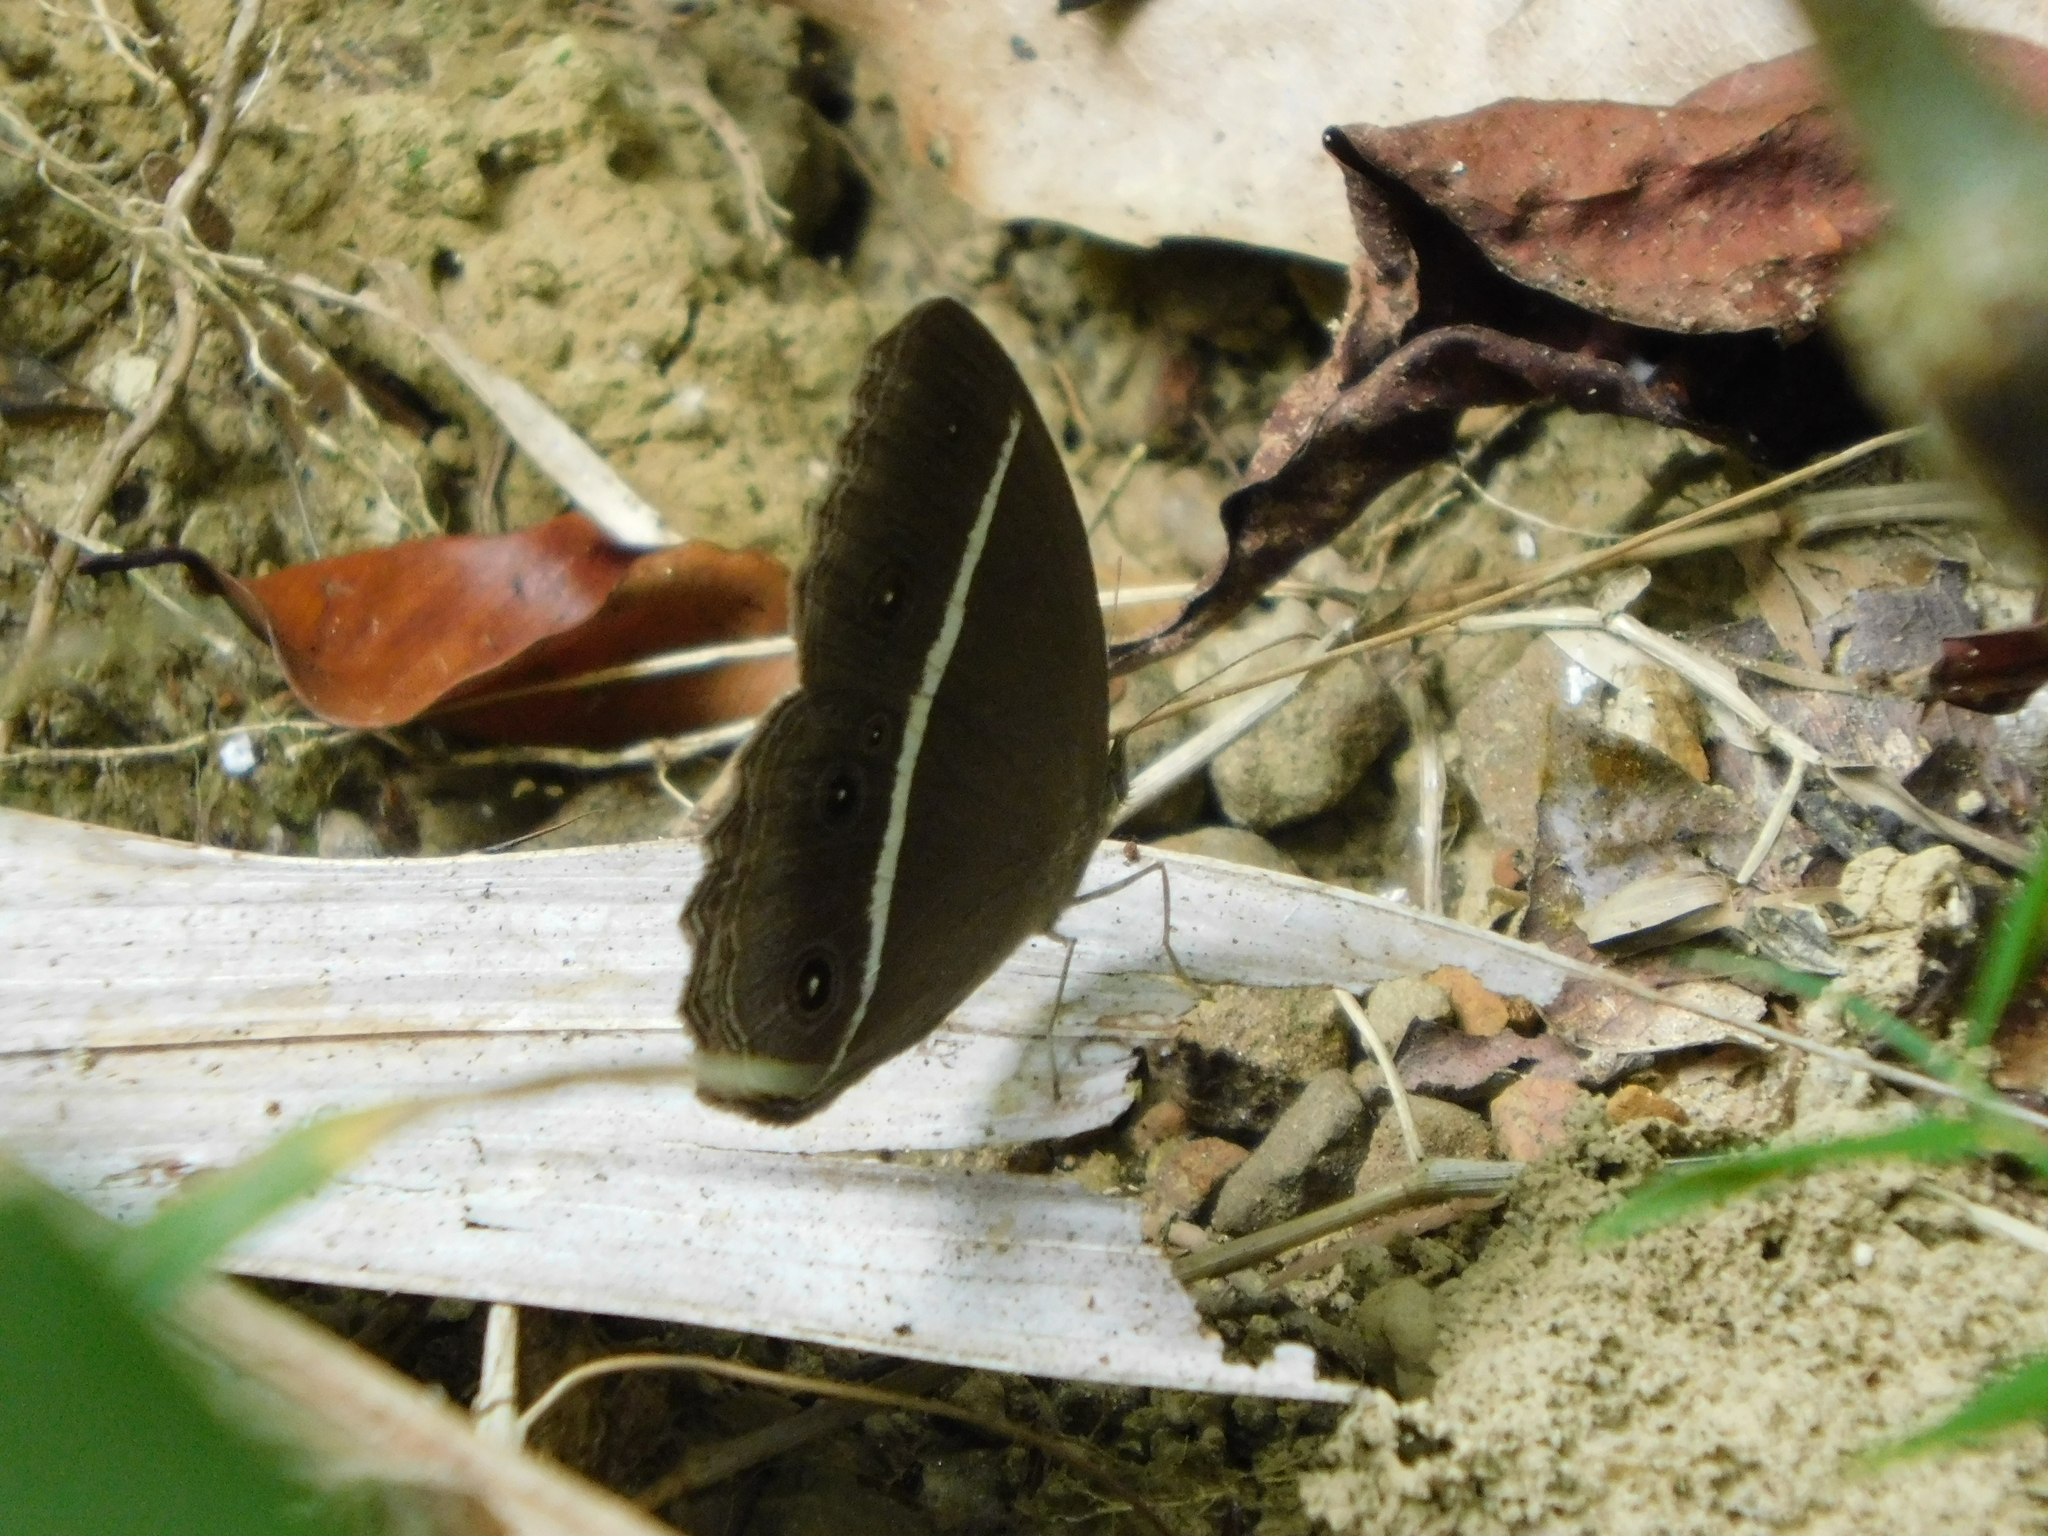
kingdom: Animalia
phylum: Arthropoda
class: Insecta
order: Lepidoptera
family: Nymphalidae
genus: Orsotriaena
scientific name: Orsotriaena medus
